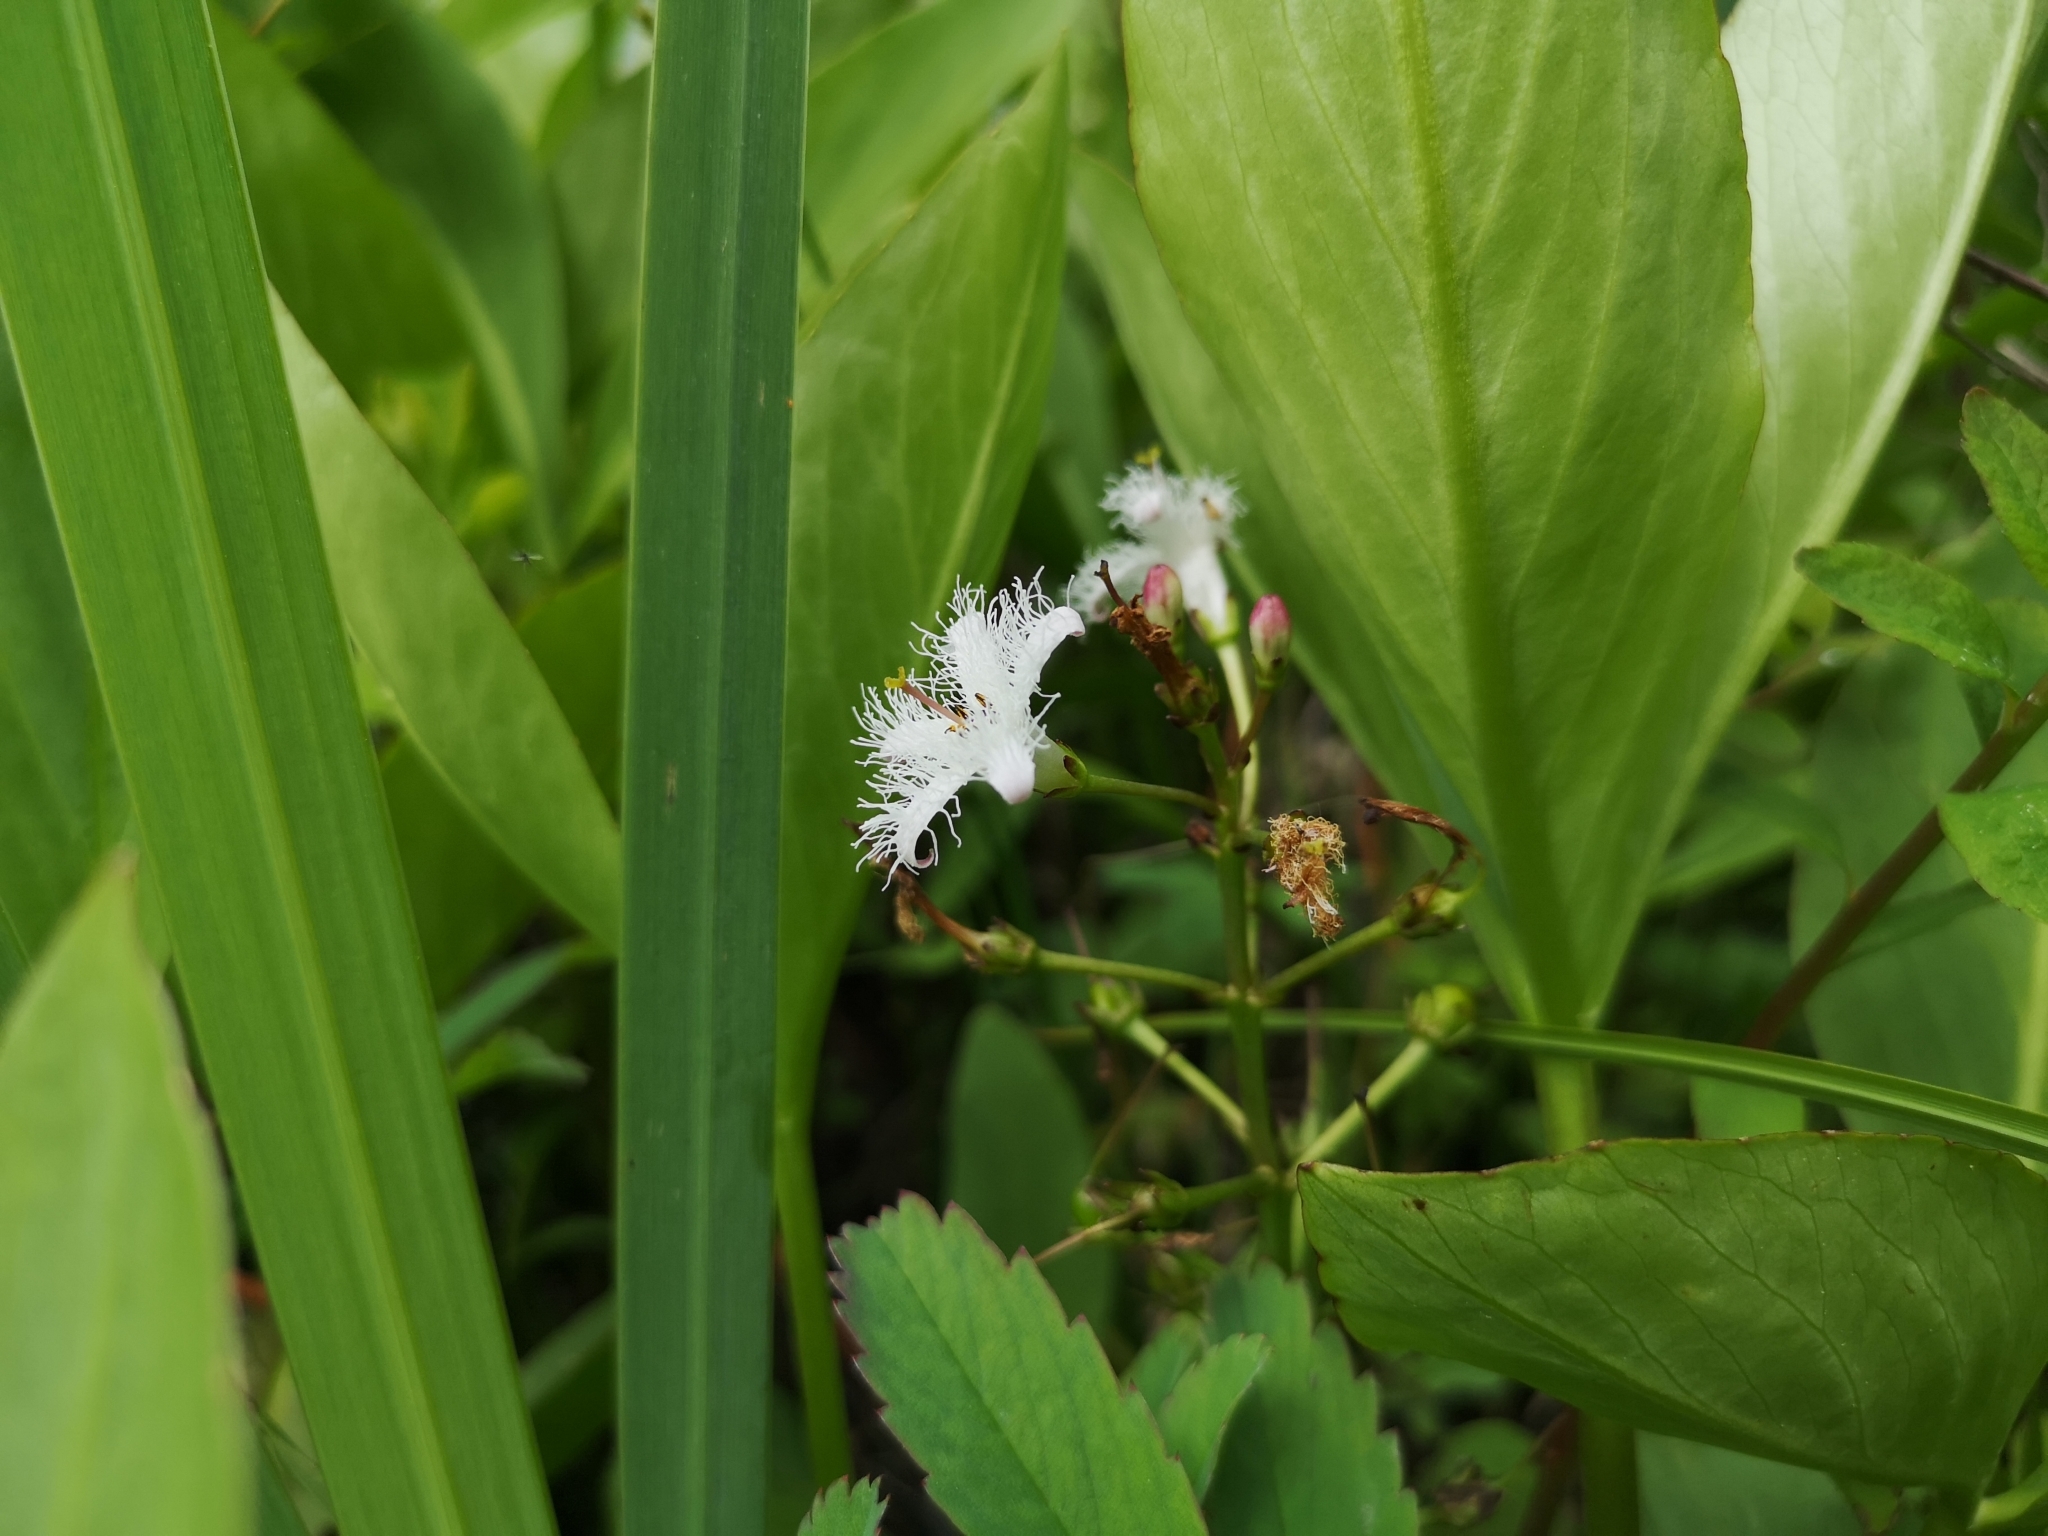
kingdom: Plantae
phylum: Tracheophyta
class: Magnoliopsida
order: Asterales
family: Menyanthaceae
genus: Menyanthes
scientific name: Menyanthes trifoliata
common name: Bogbean
